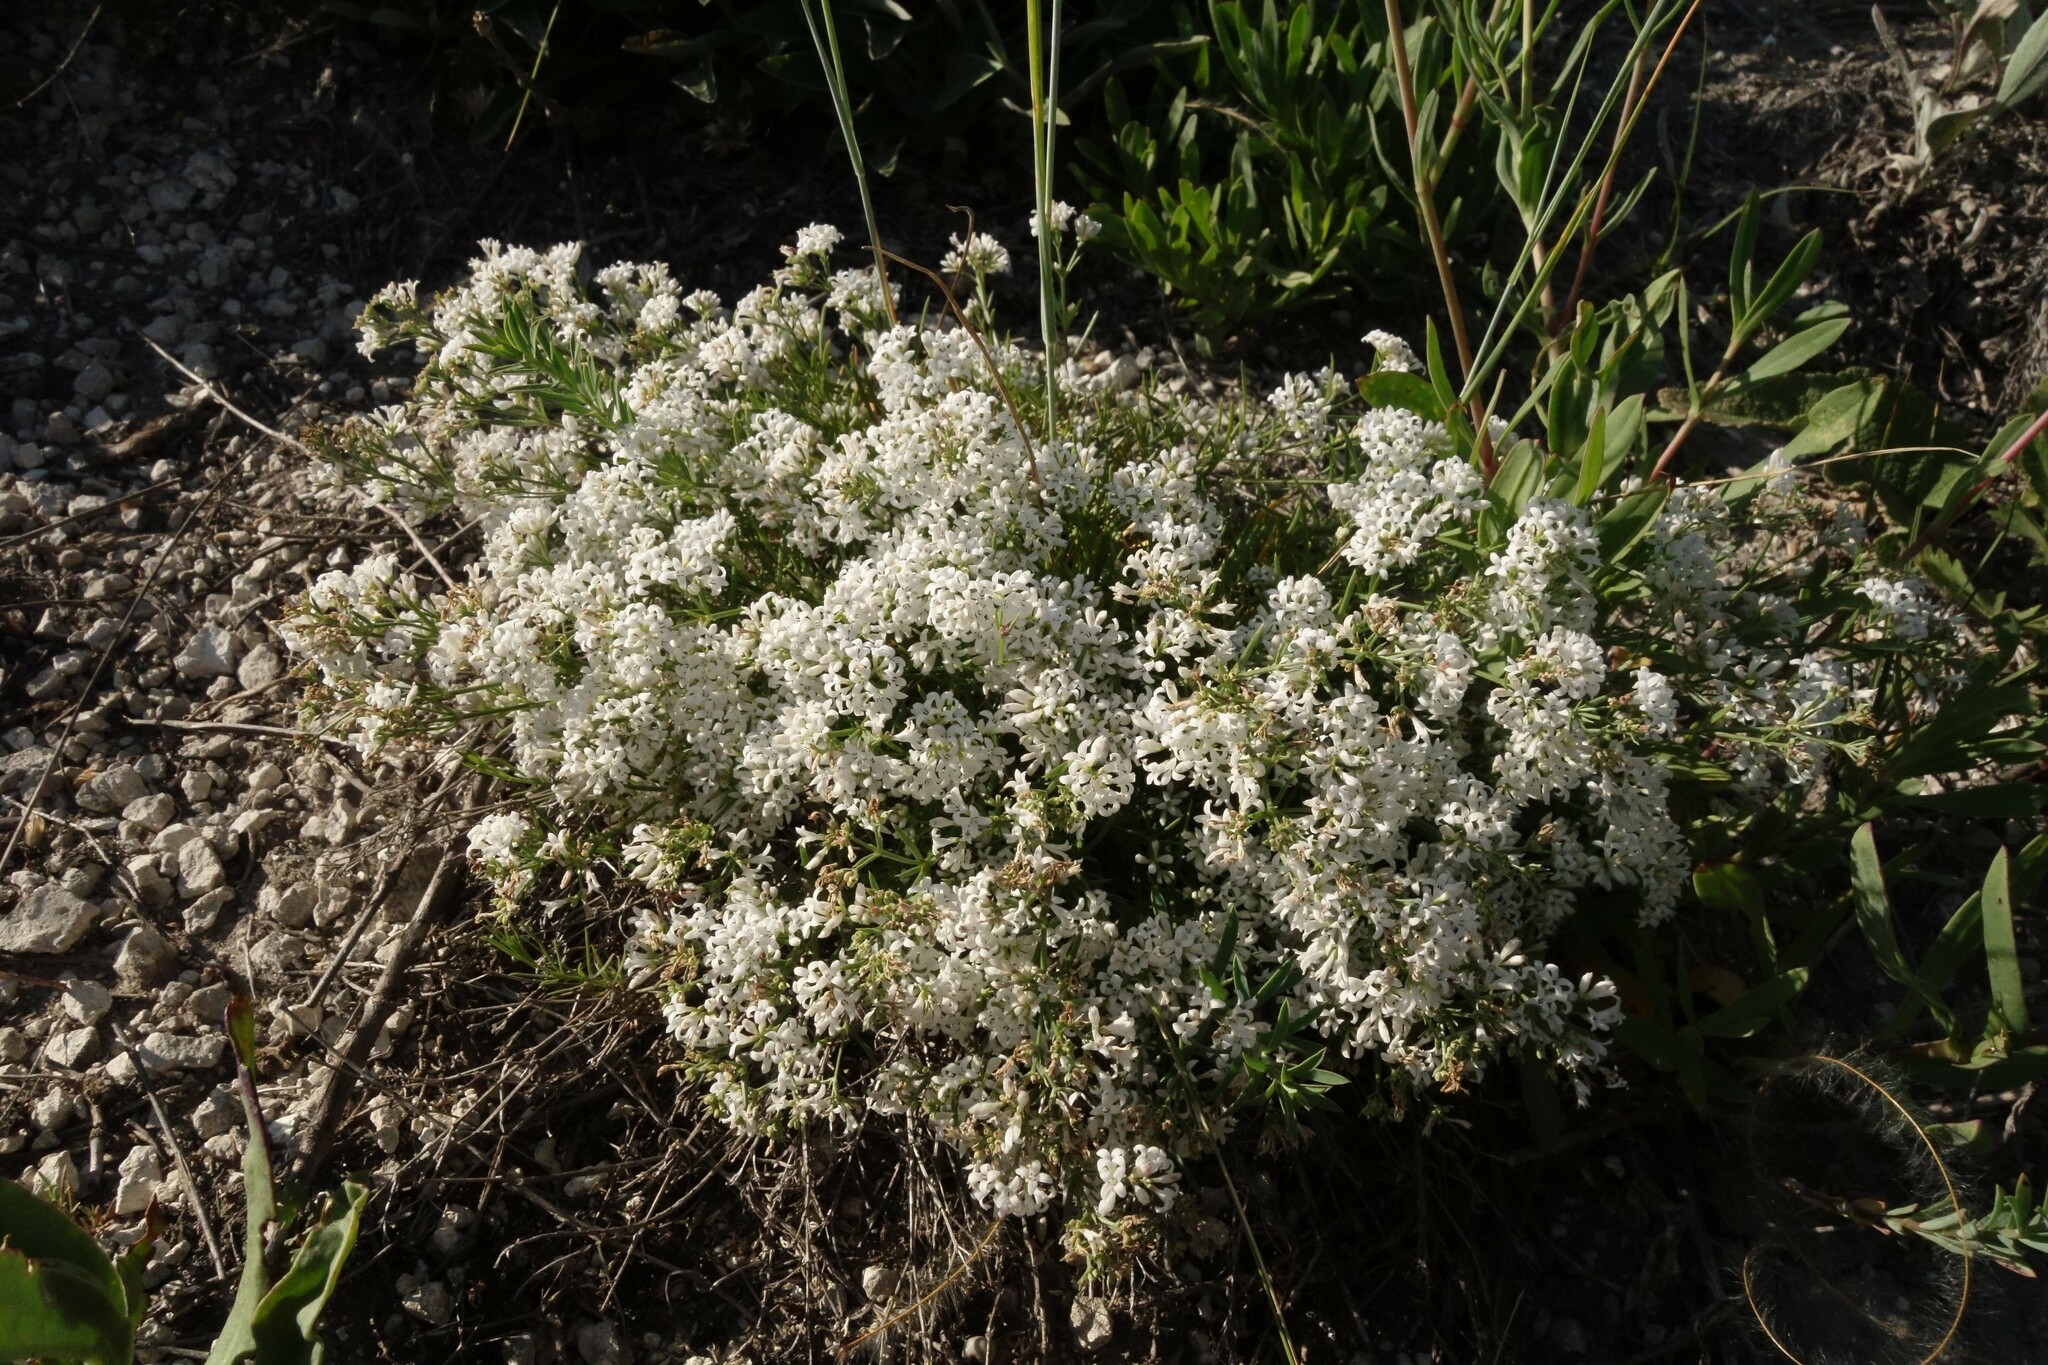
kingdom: Plantae
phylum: Tracheophyta
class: Magnoliopsida
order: Gentianales
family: Rubiaceae
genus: Cynanchica
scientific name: Cynanchica tephrocarpa
